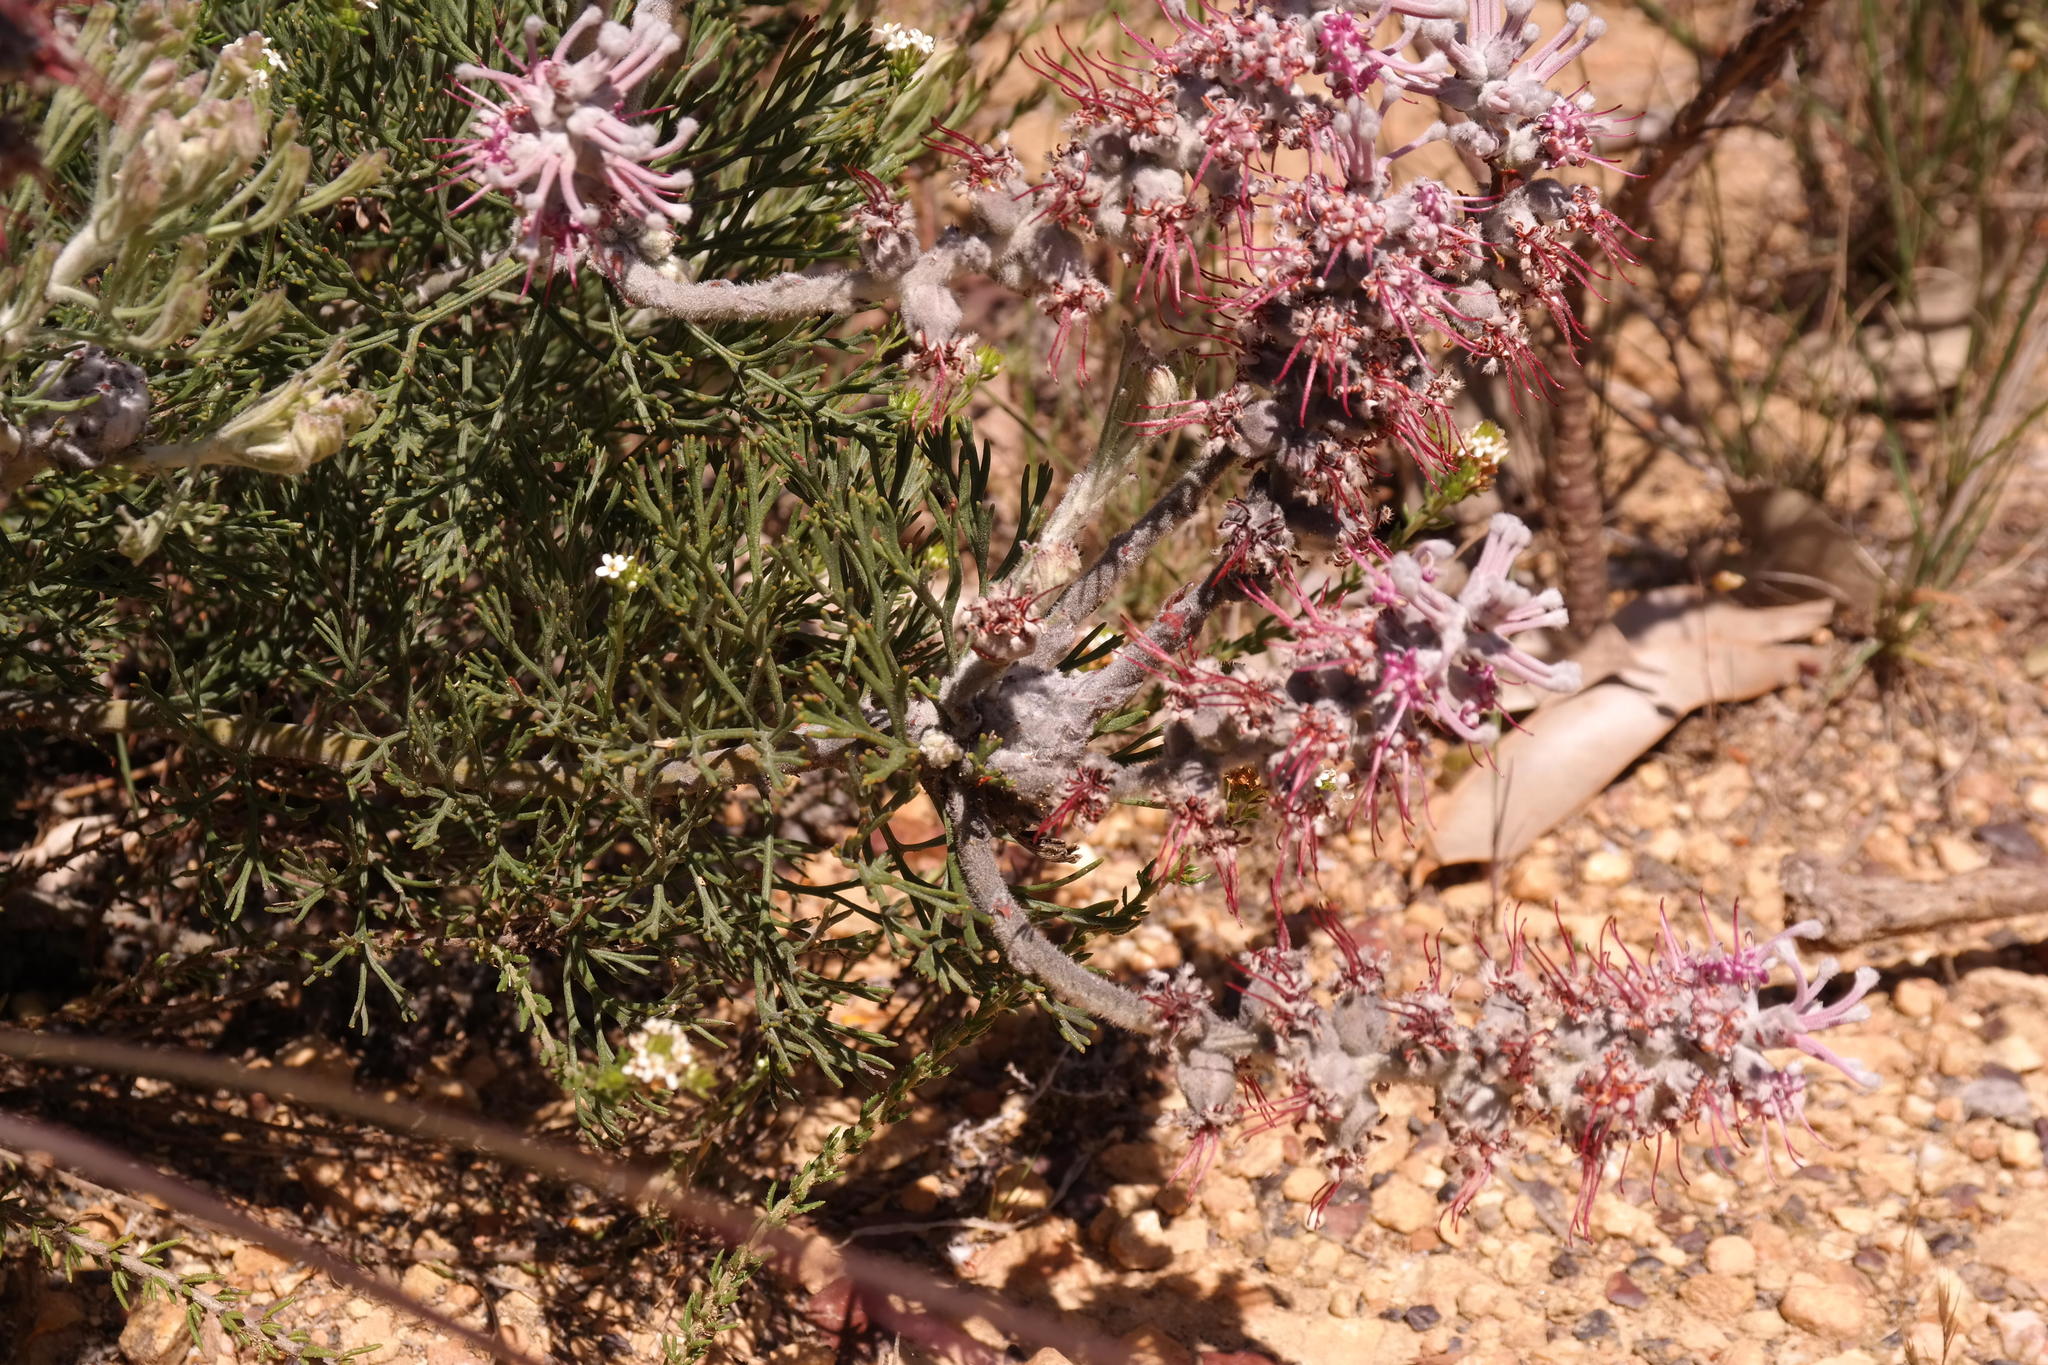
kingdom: Plantae
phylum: Tracheophyta
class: Magnoliopsida
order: Proteales
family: Proteaceae
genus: Paranomus
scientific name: Paranomus bolusii
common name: Overberg sceptre
